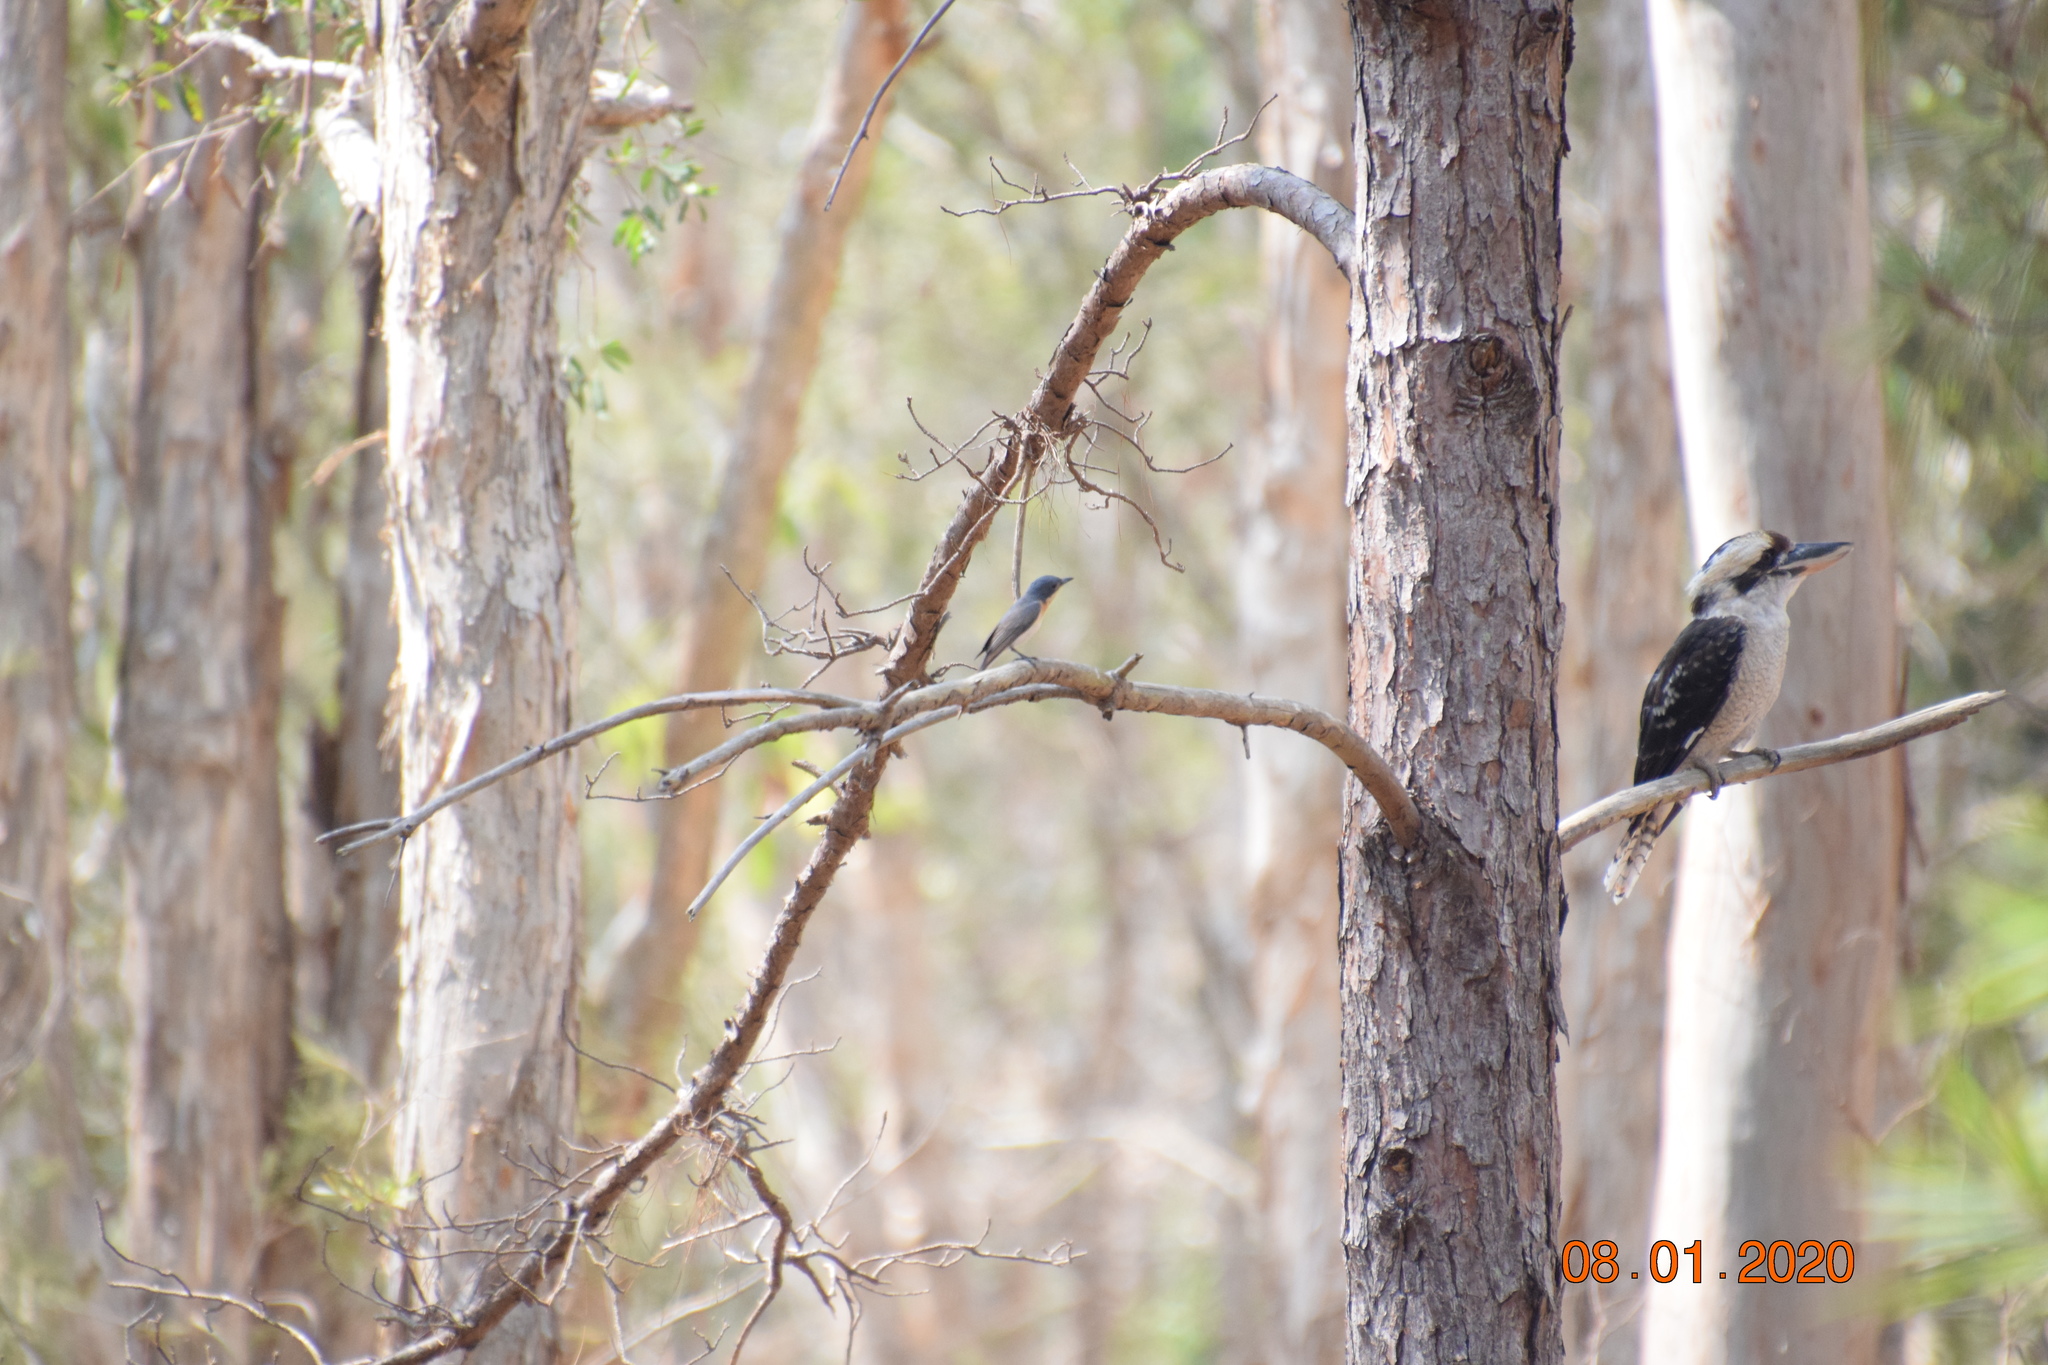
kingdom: Animalia
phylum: Chordata
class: Aves
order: Coraciiformes
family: Alcedinidae
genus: Dacelo
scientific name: Dacelo novaeguineae
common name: Laughing kookaburra
